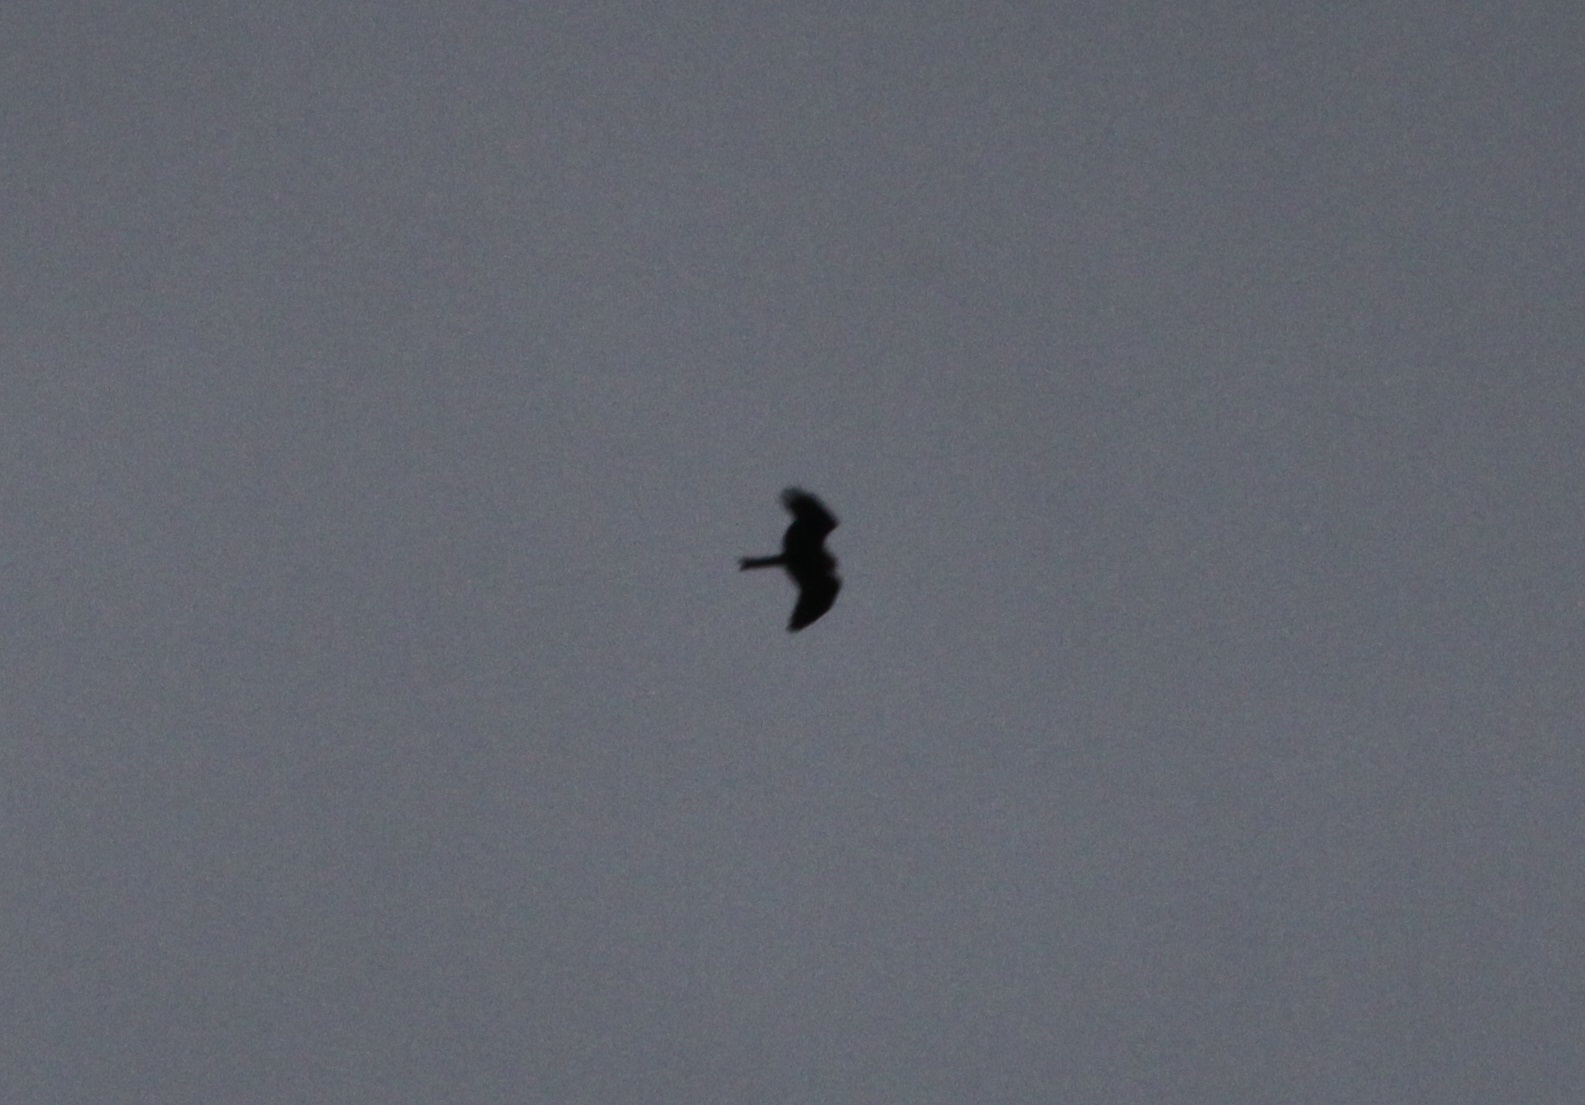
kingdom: Animalia
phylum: Chordata
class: Aves
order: Accipitriformes
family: Accipitridae
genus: Milvus
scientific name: Milvus migrans
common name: Black kite
